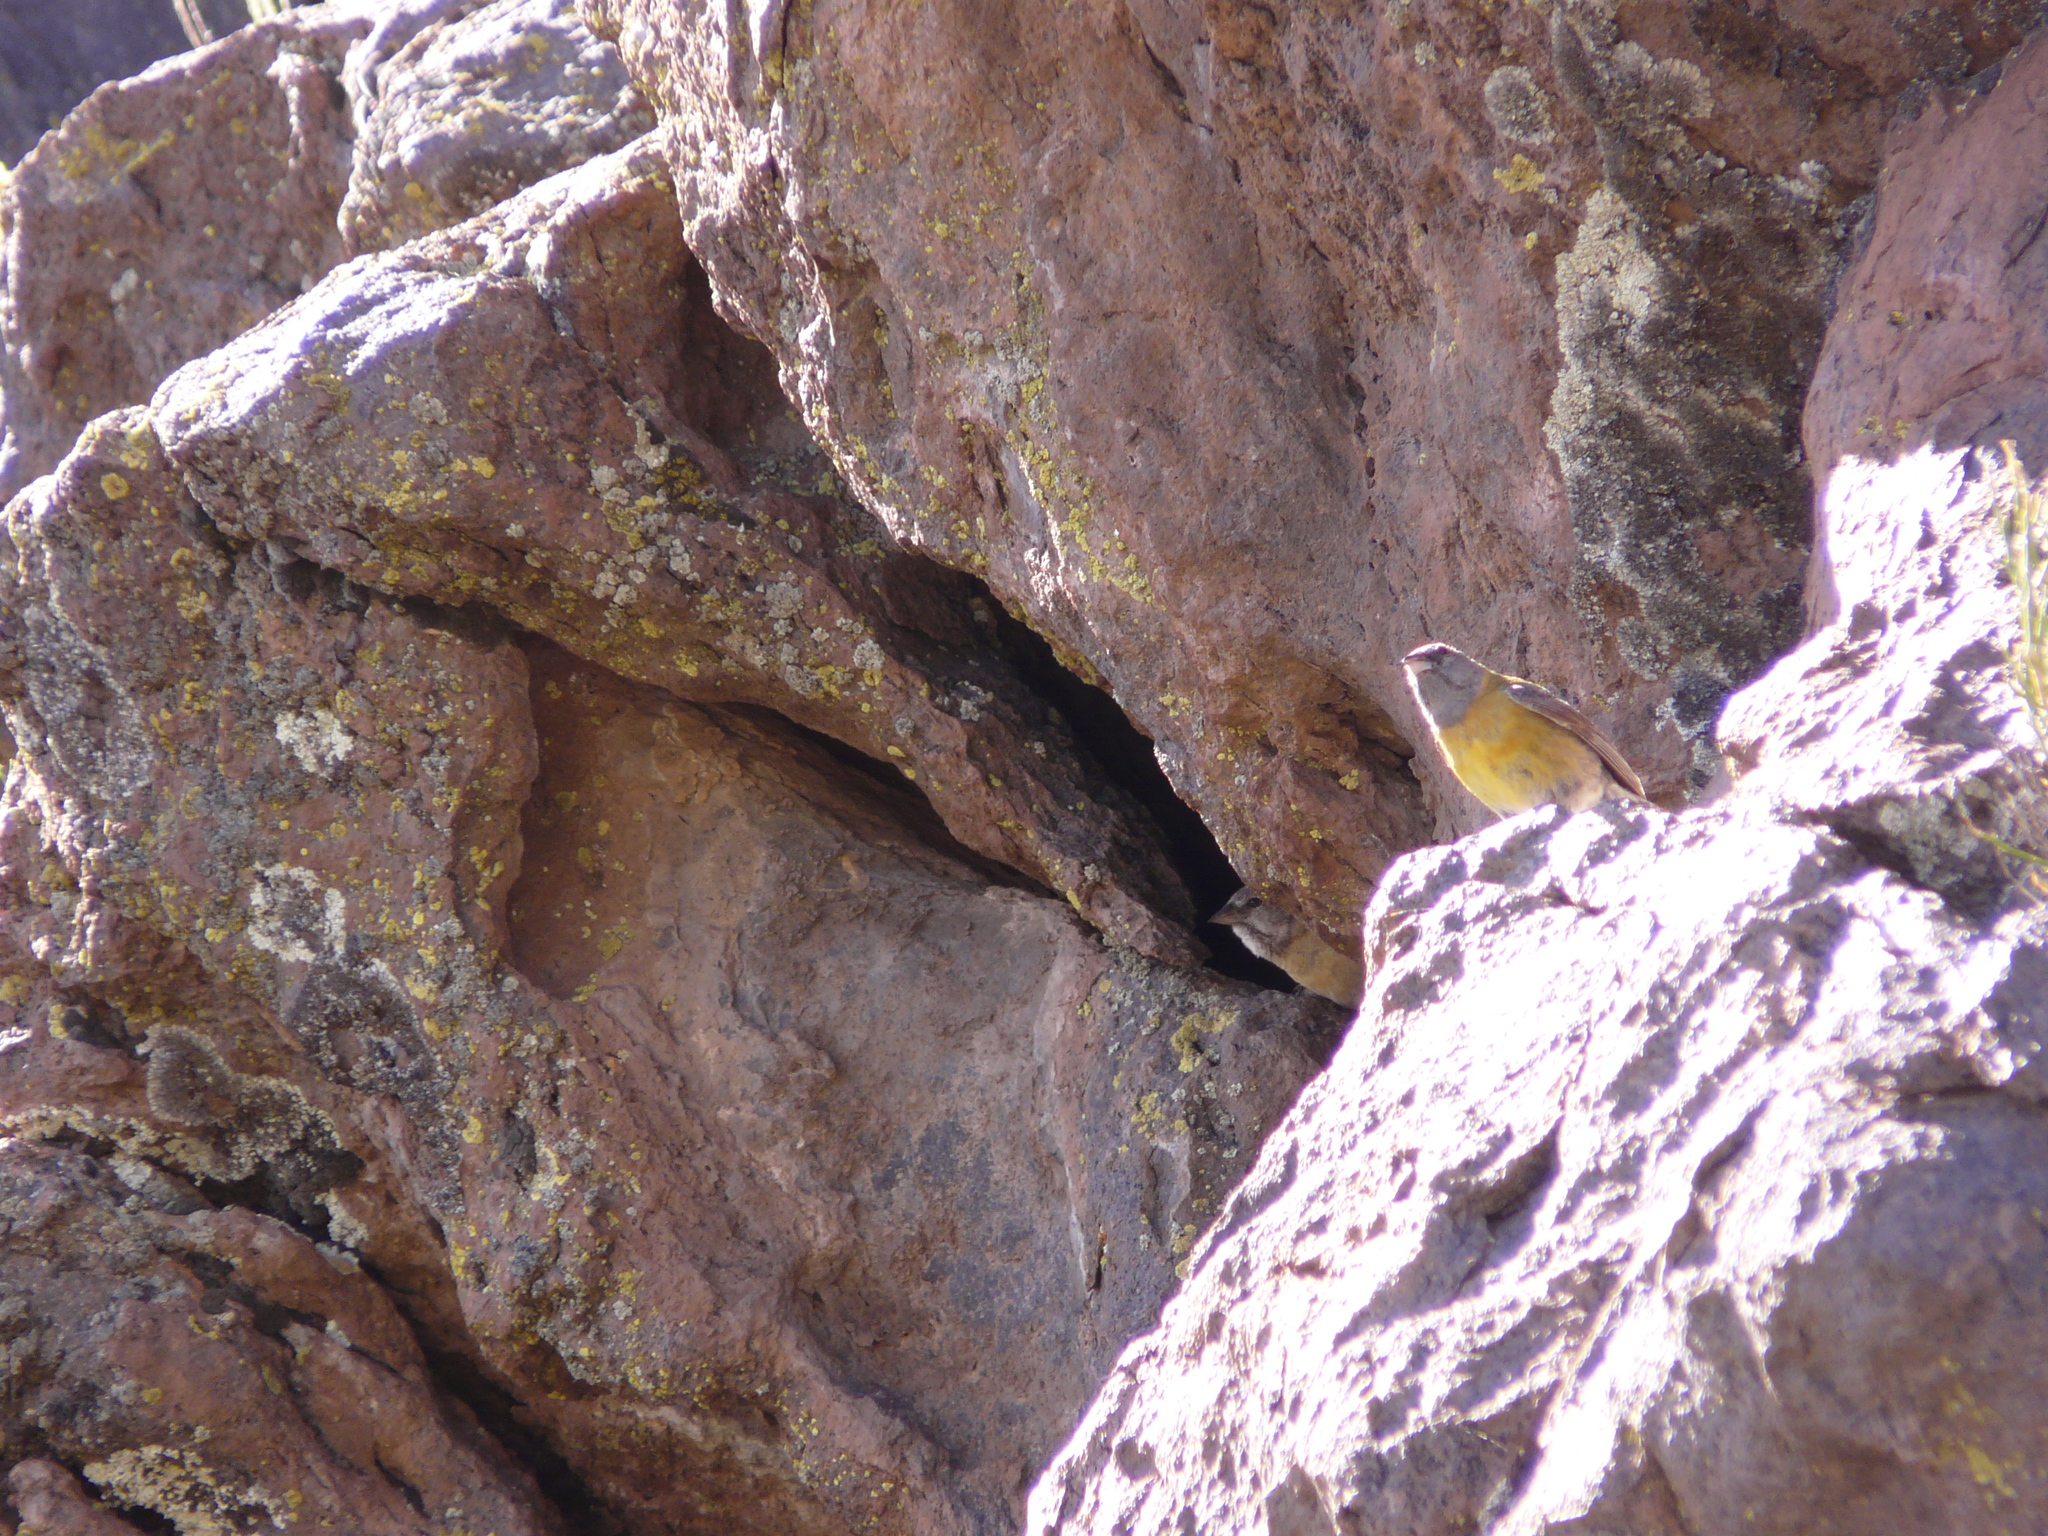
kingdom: Animalia
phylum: Chordata
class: Aves
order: Passeriformes
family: Thraupidae
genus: Phrygilus
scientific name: Phrygilus gayi
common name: Grey-hooded sierra finch
